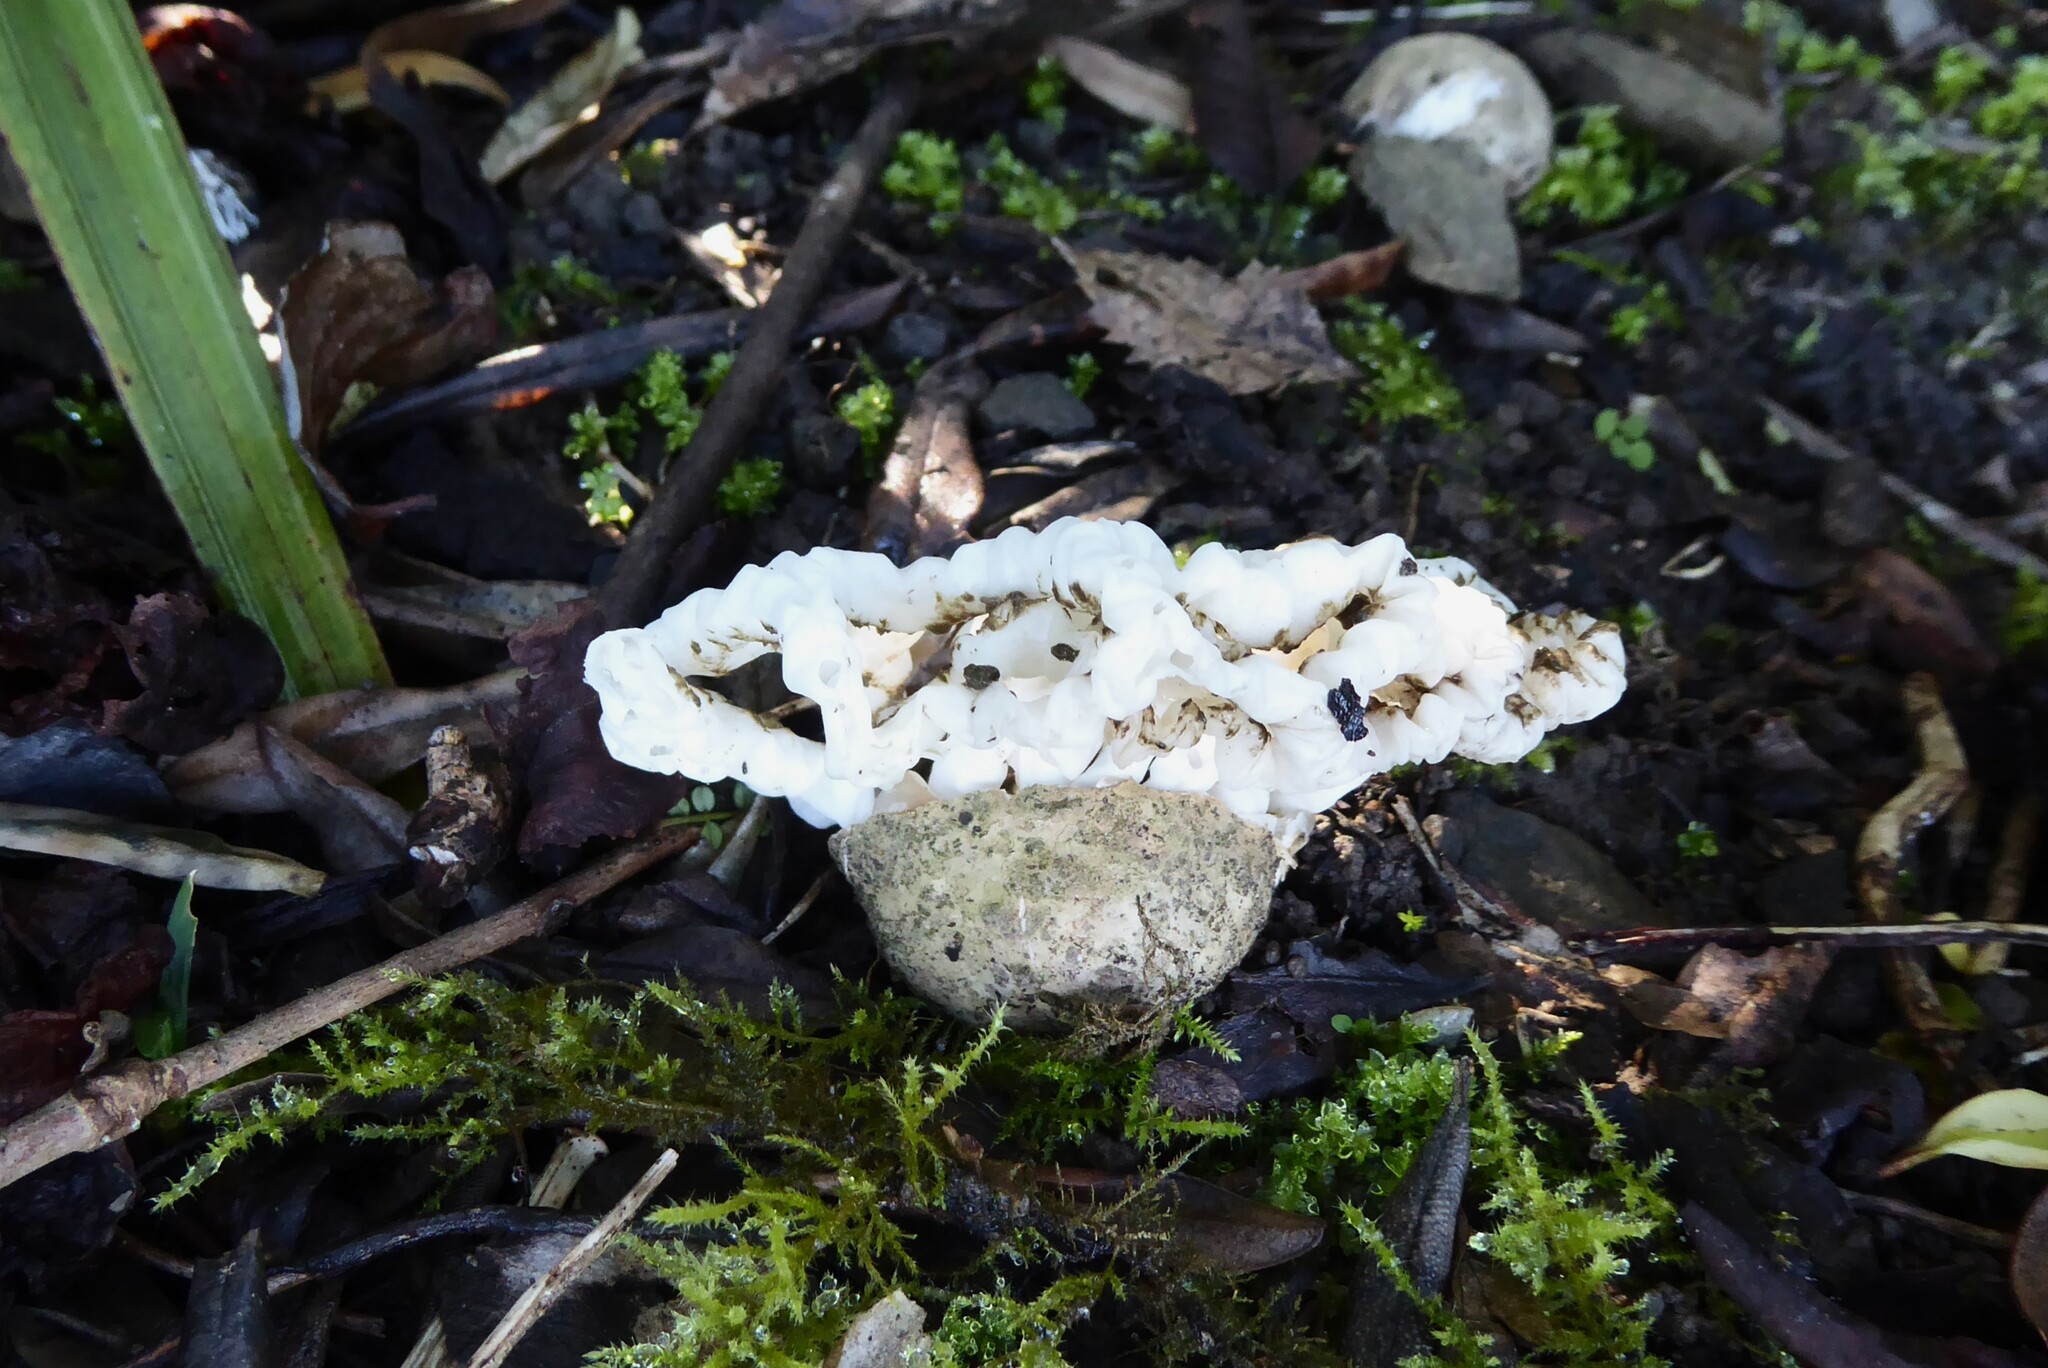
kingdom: Fungi
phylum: Basidiomycota
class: Agaricomycetes
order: Phallales
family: Phallaceae
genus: Ileodictyon
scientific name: Ileodictyon cibarium
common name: Basket fungus
